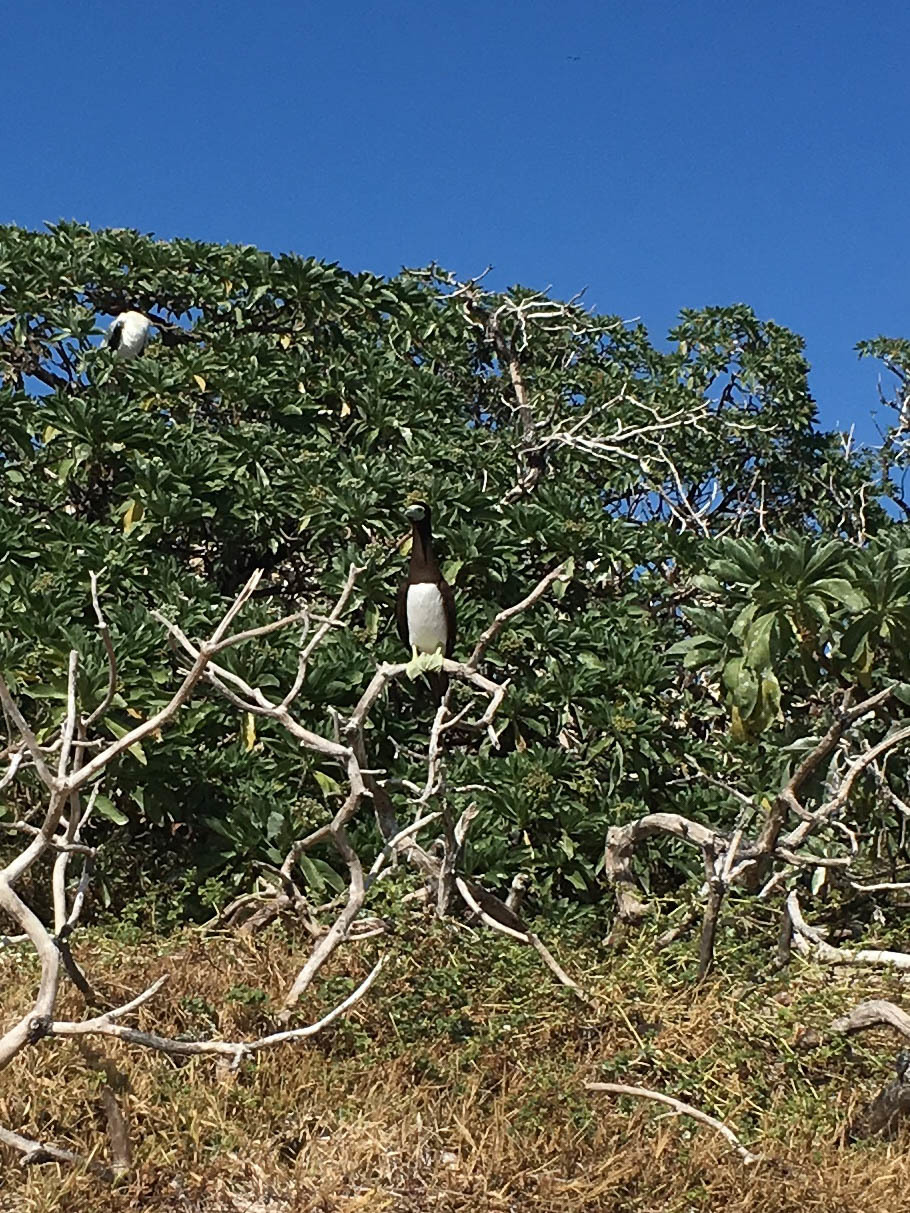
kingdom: Animalia
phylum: Chordata
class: Aves
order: Suliformes
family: Sulidae
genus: Sula
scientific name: Sula leucogaster
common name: Brown booby
